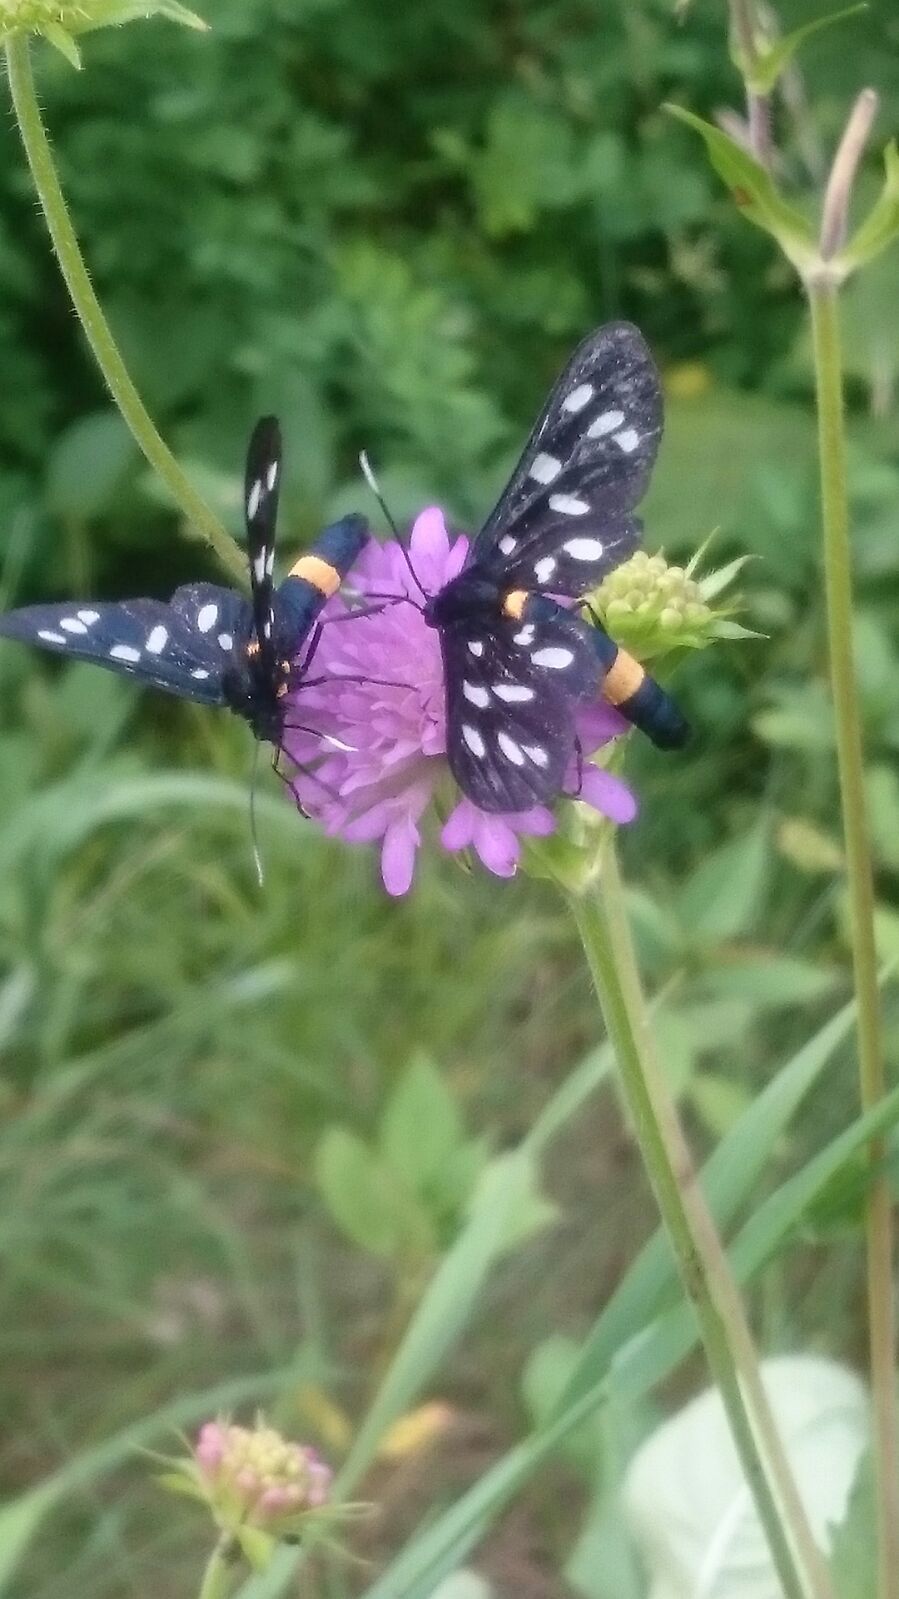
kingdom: Animalia
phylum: Arthropoda
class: Insecta
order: Lepidoptera
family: Erebidae
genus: Amata
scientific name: Amata phegea
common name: Nine-spotted
